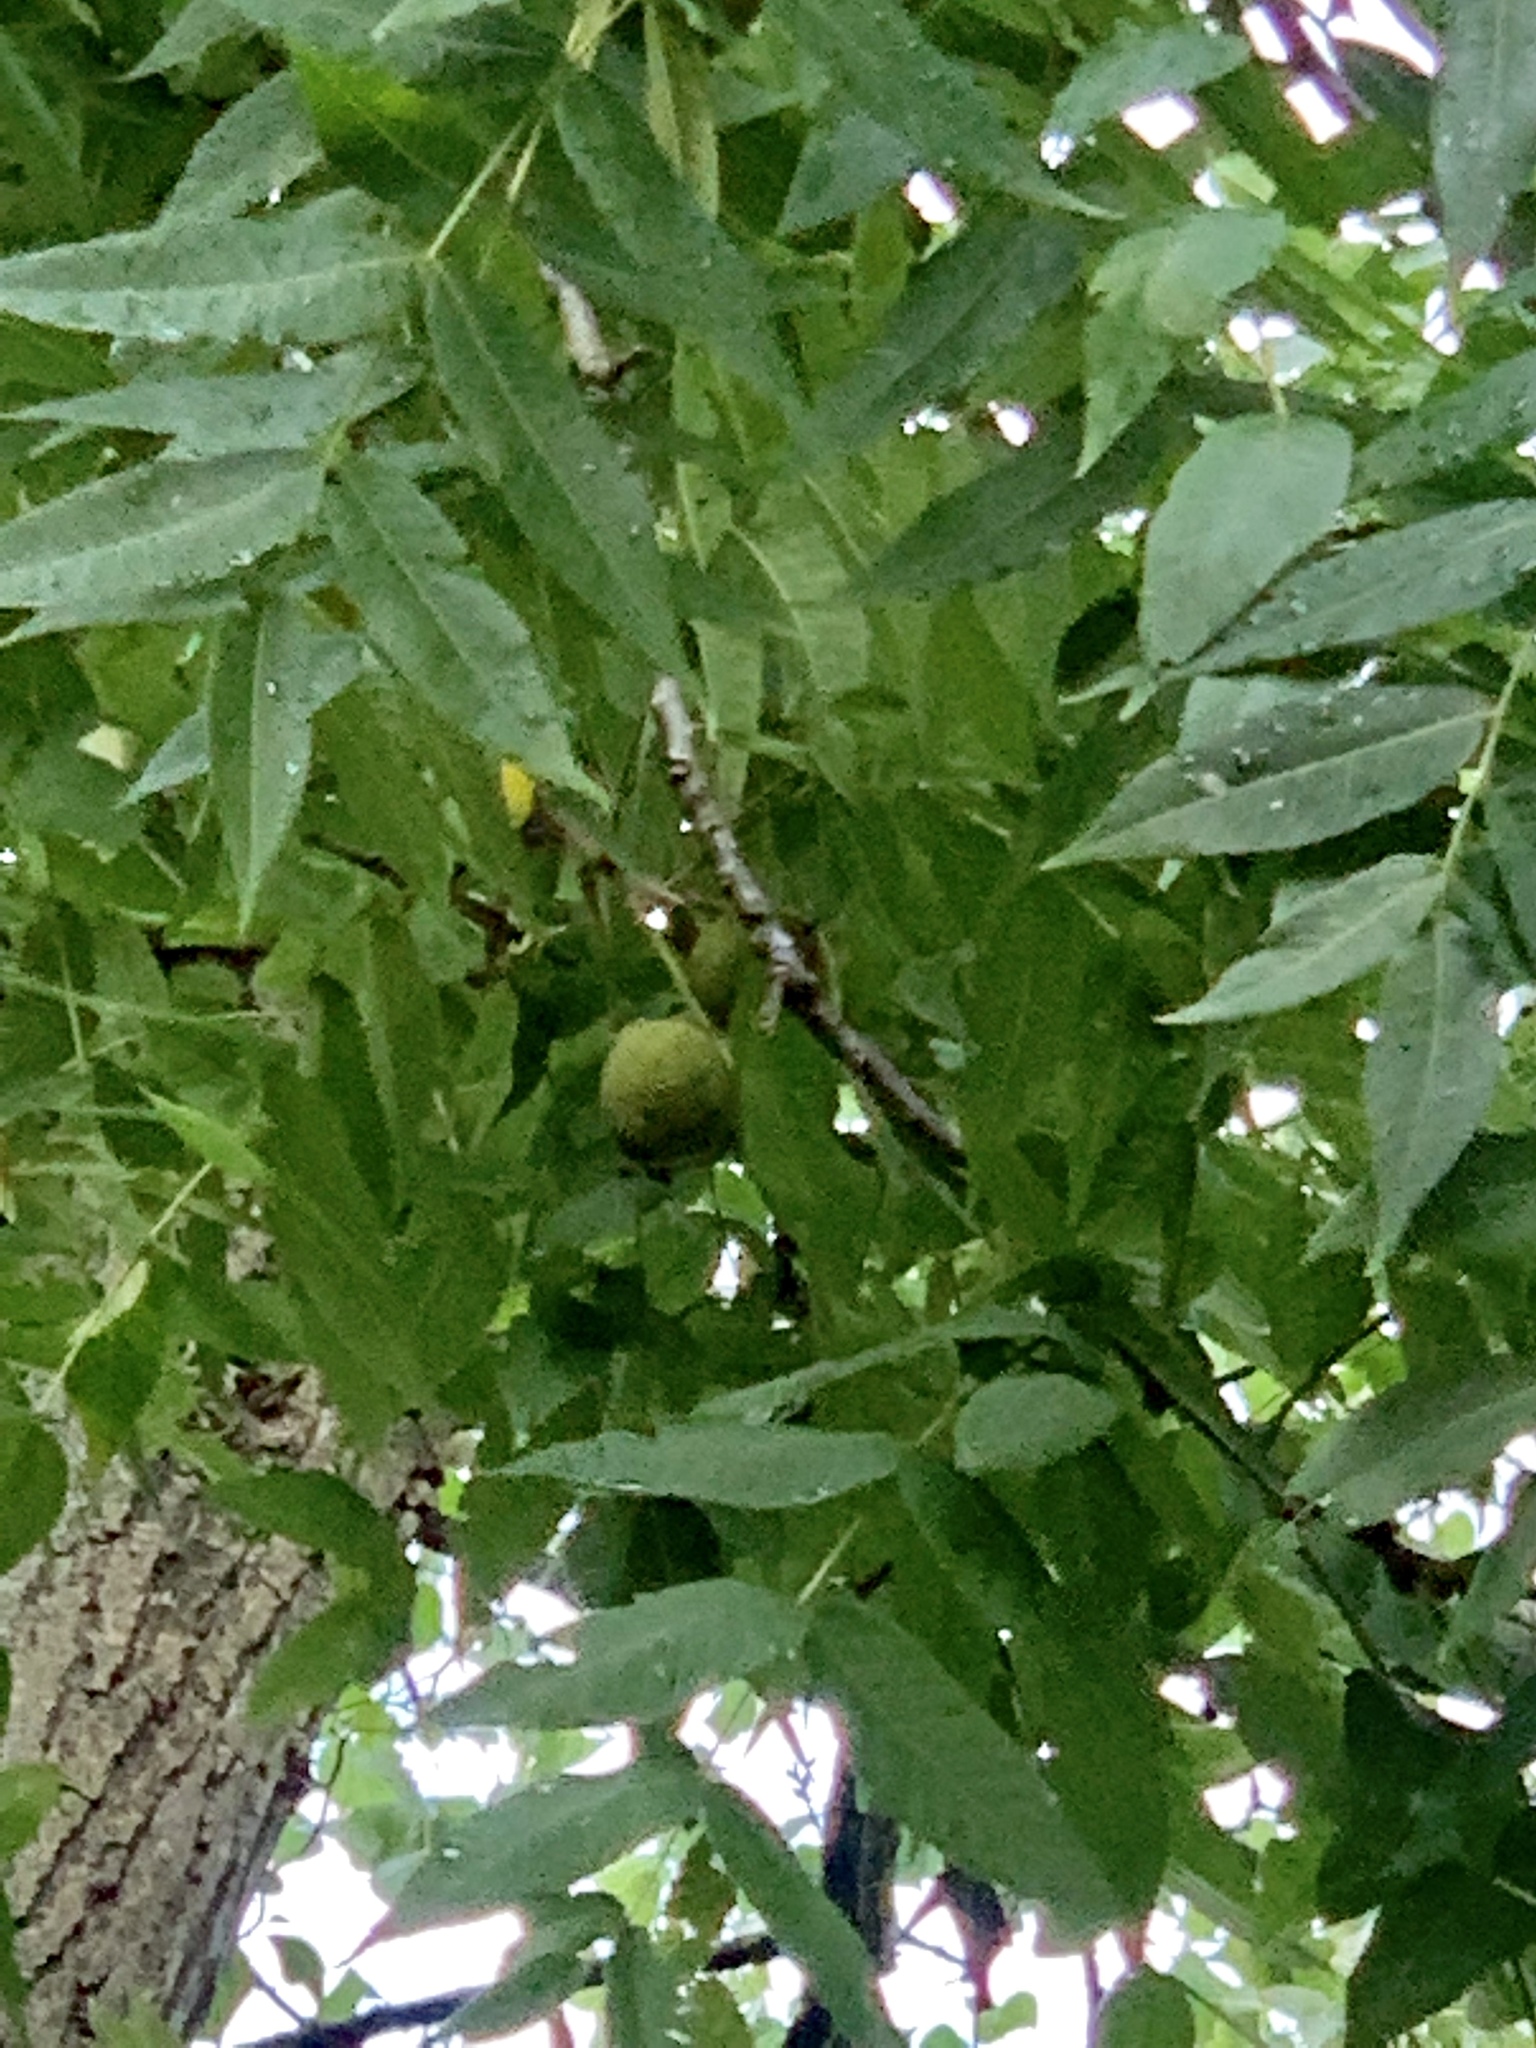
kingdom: Plantae
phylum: Tracheophyta
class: Magnoliopsida
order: Fagales
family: Juglandaceae
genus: Juglans
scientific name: Juglans nigra
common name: Black walnut
